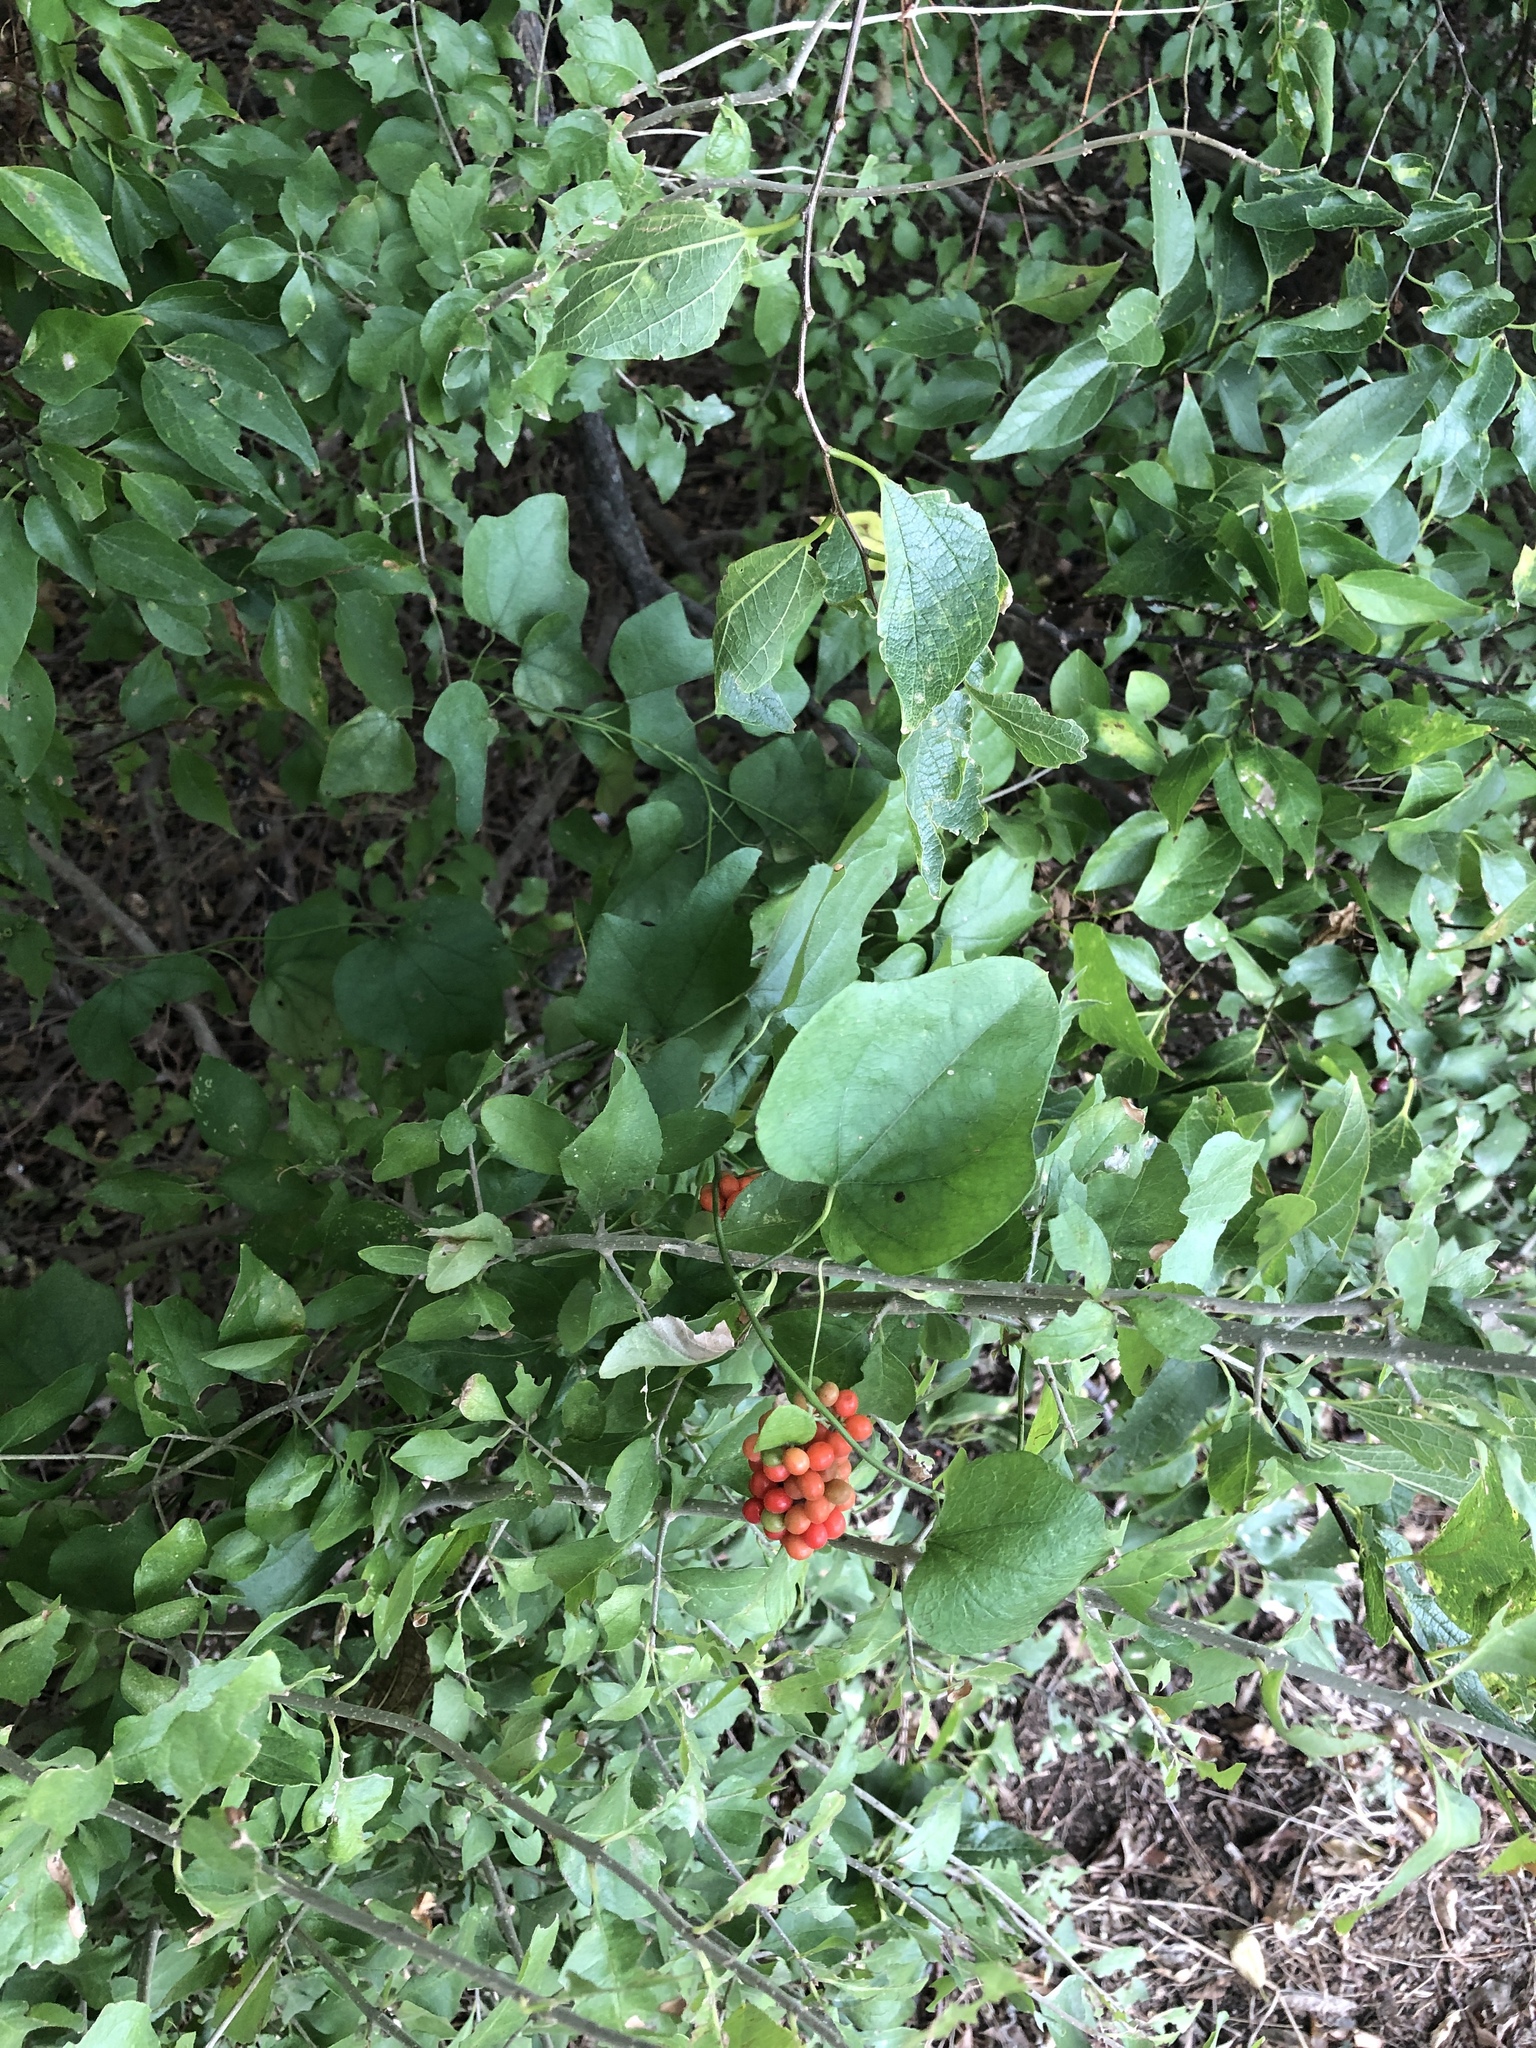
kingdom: Plantae
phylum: Tracheophyta
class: Magnoliopsida
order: Ranunculales
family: Menispermaceae
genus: Cocculus
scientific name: Cocculus carolinus
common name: Carolina moonseed
